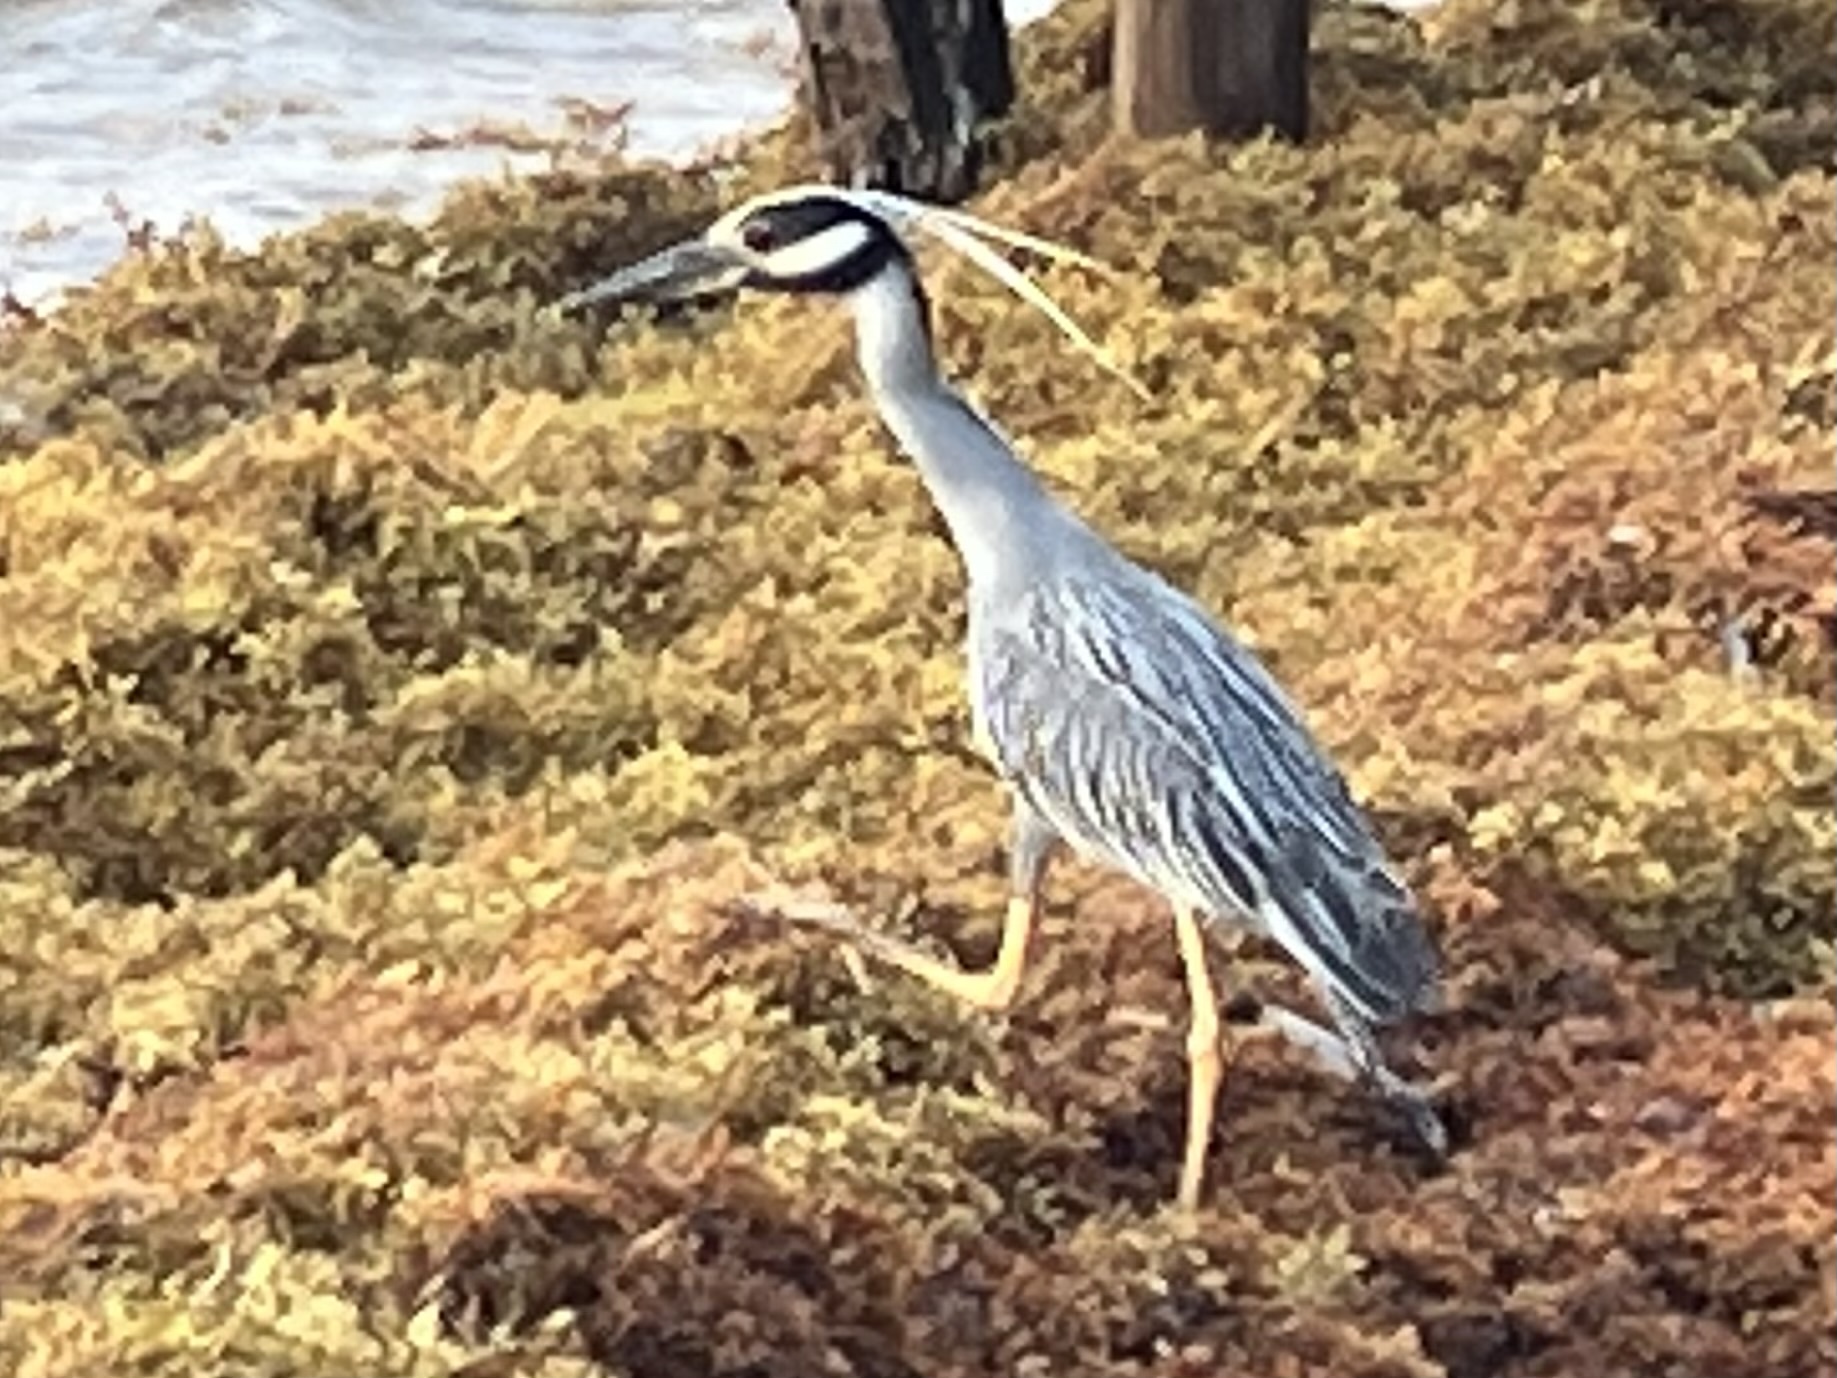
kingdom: Animalia
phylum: Chordata
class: Aves
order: Pelecaniformes
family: Ardeidae
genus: Nyctanassa
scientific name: Nyctanassa violacea
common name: Yellow-crowned night heron
